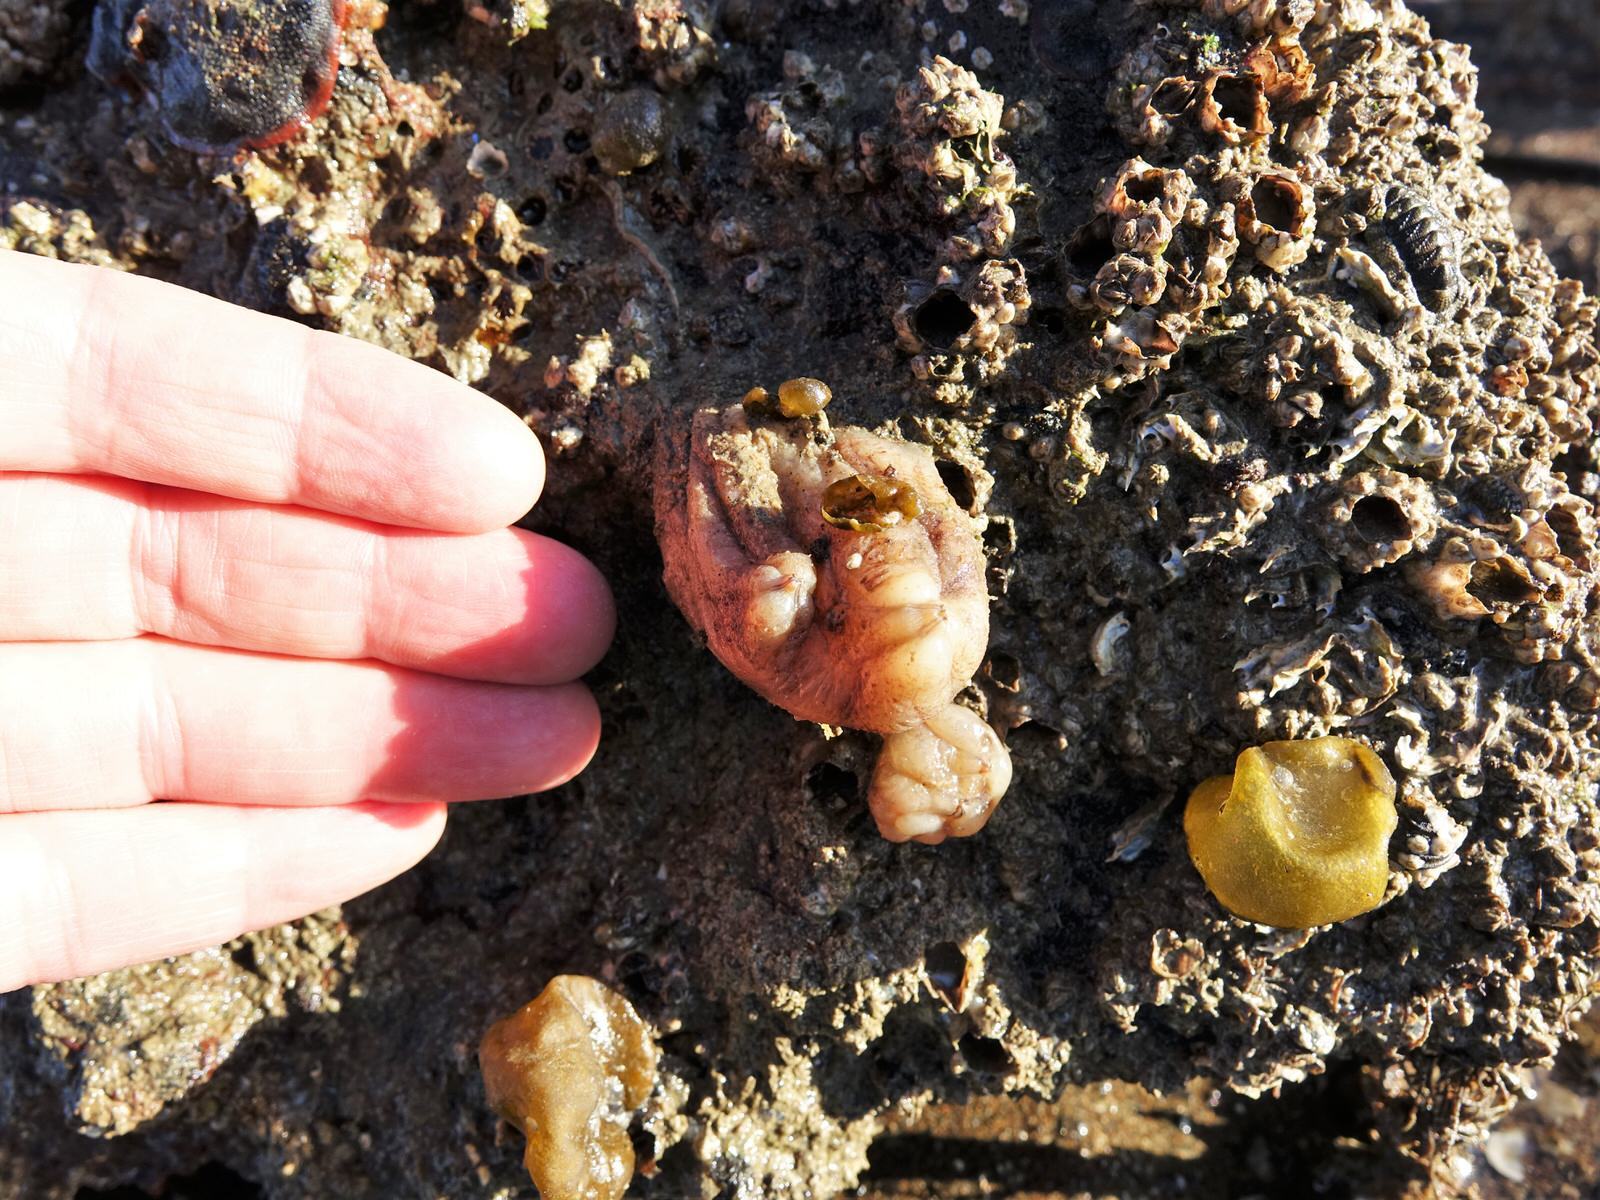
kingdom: Animalia
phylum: Chordata
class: Ascidiacea
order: Stolidobranchia
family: Styelidae
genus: Styela
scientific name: Styela plicata
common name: Pleated tunicate
